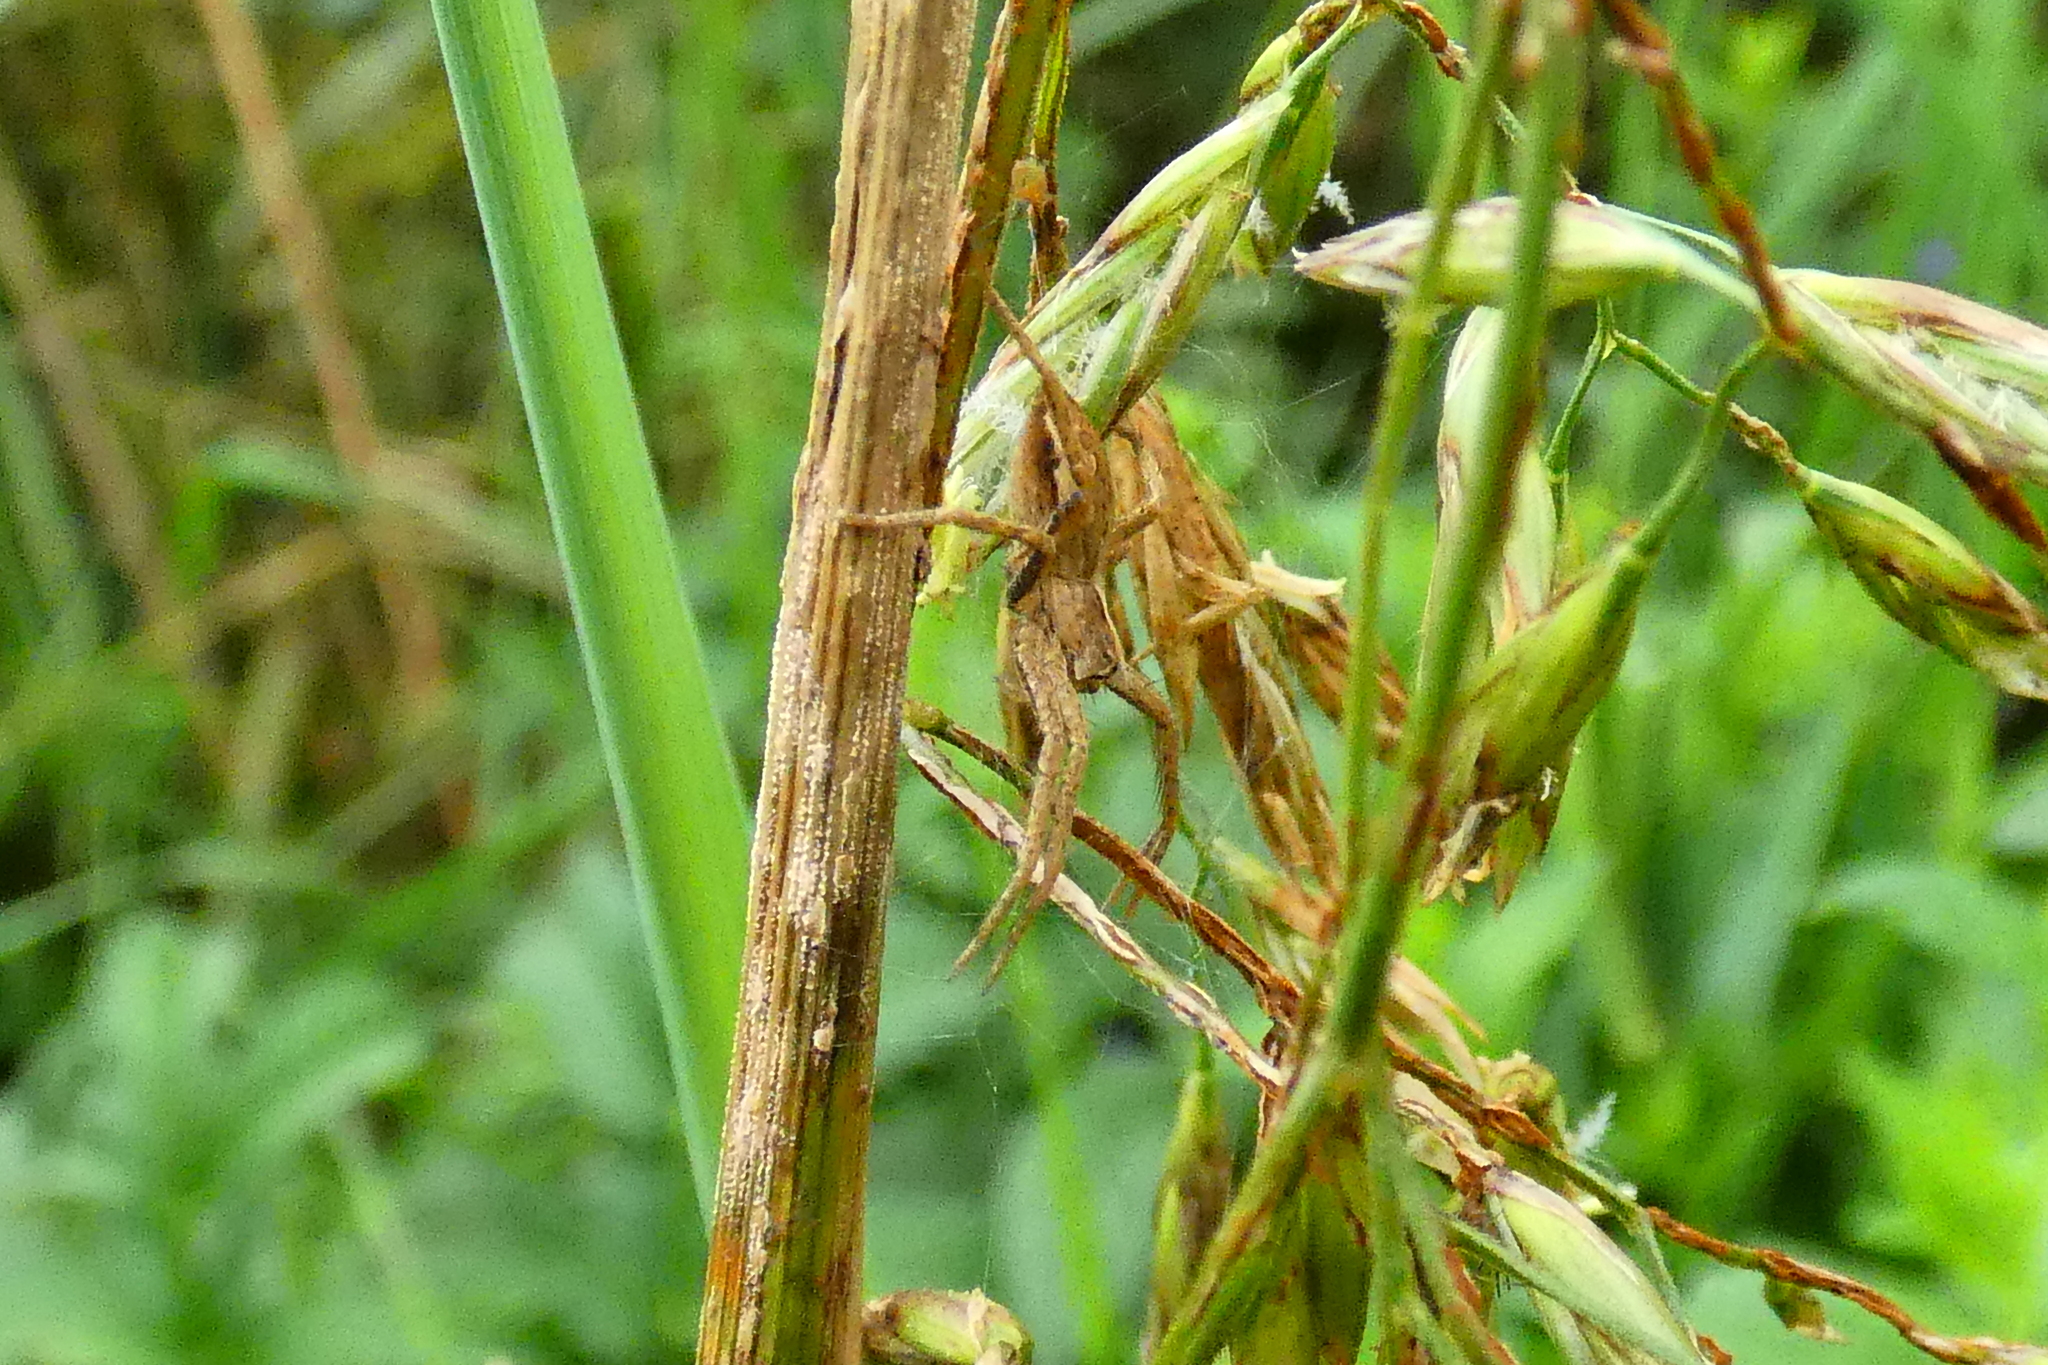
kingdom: Animalia
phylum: Arthropoda
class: Arachnida
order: Araneae
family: Pisauridae
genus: Pisaura
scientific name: Pisaura mirabilis
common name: Tent spider
